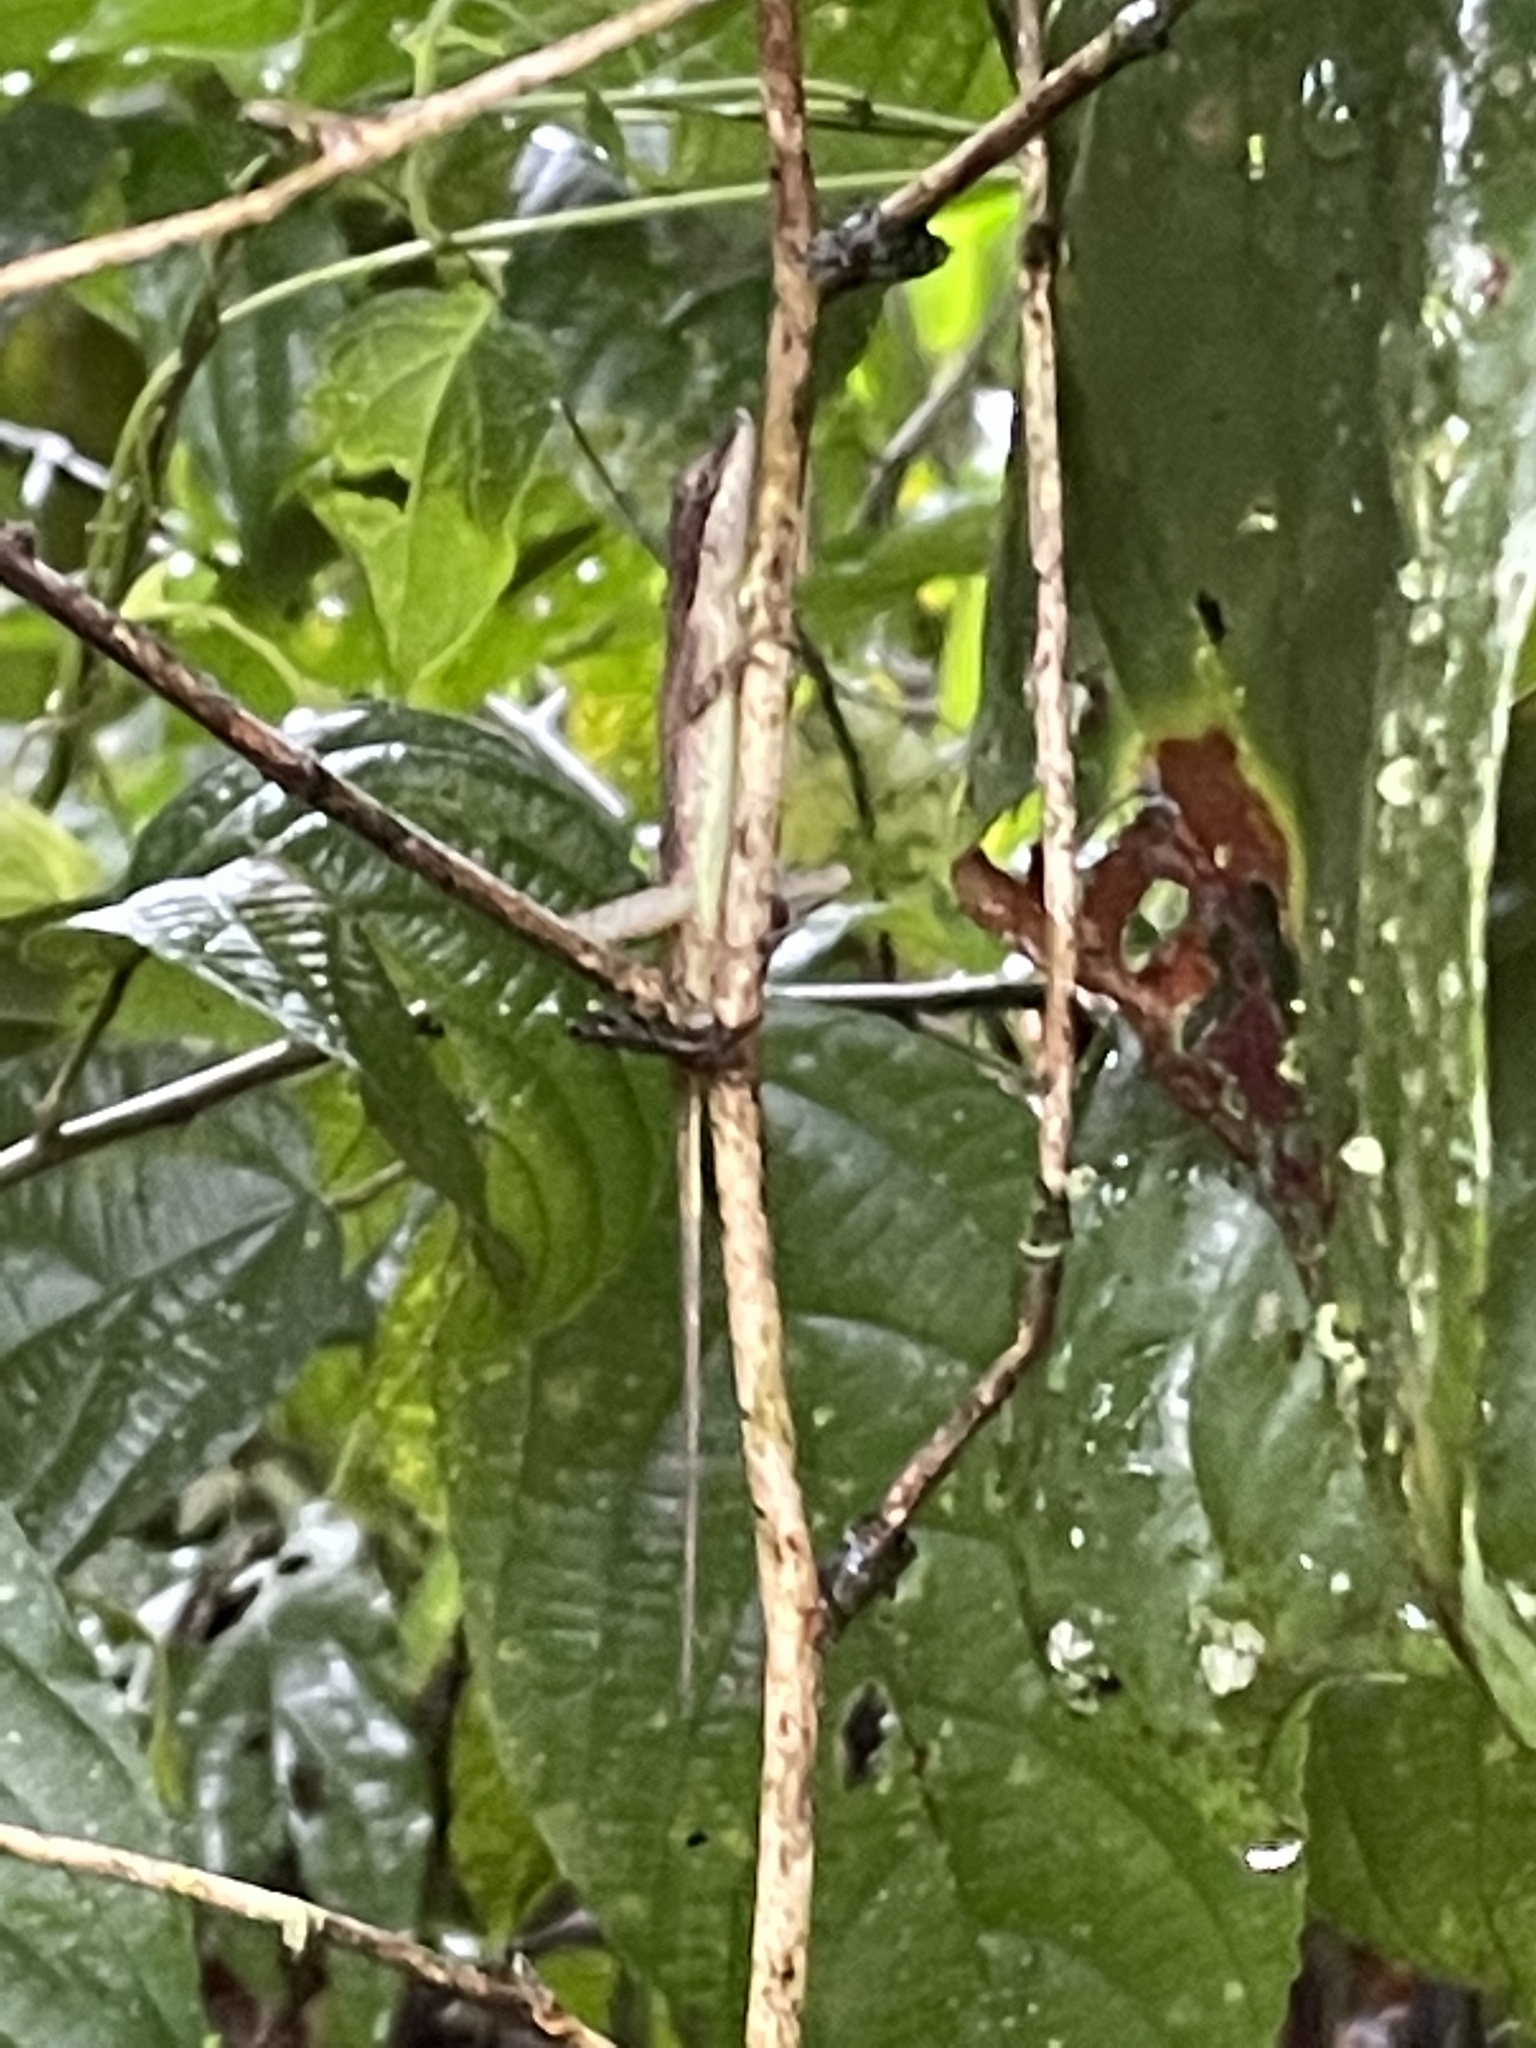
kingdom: Animalia
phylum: Chordata
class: Squamata
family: Dactyloidae
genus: Anolis
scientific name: Anolis limifrons
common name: Border anole
